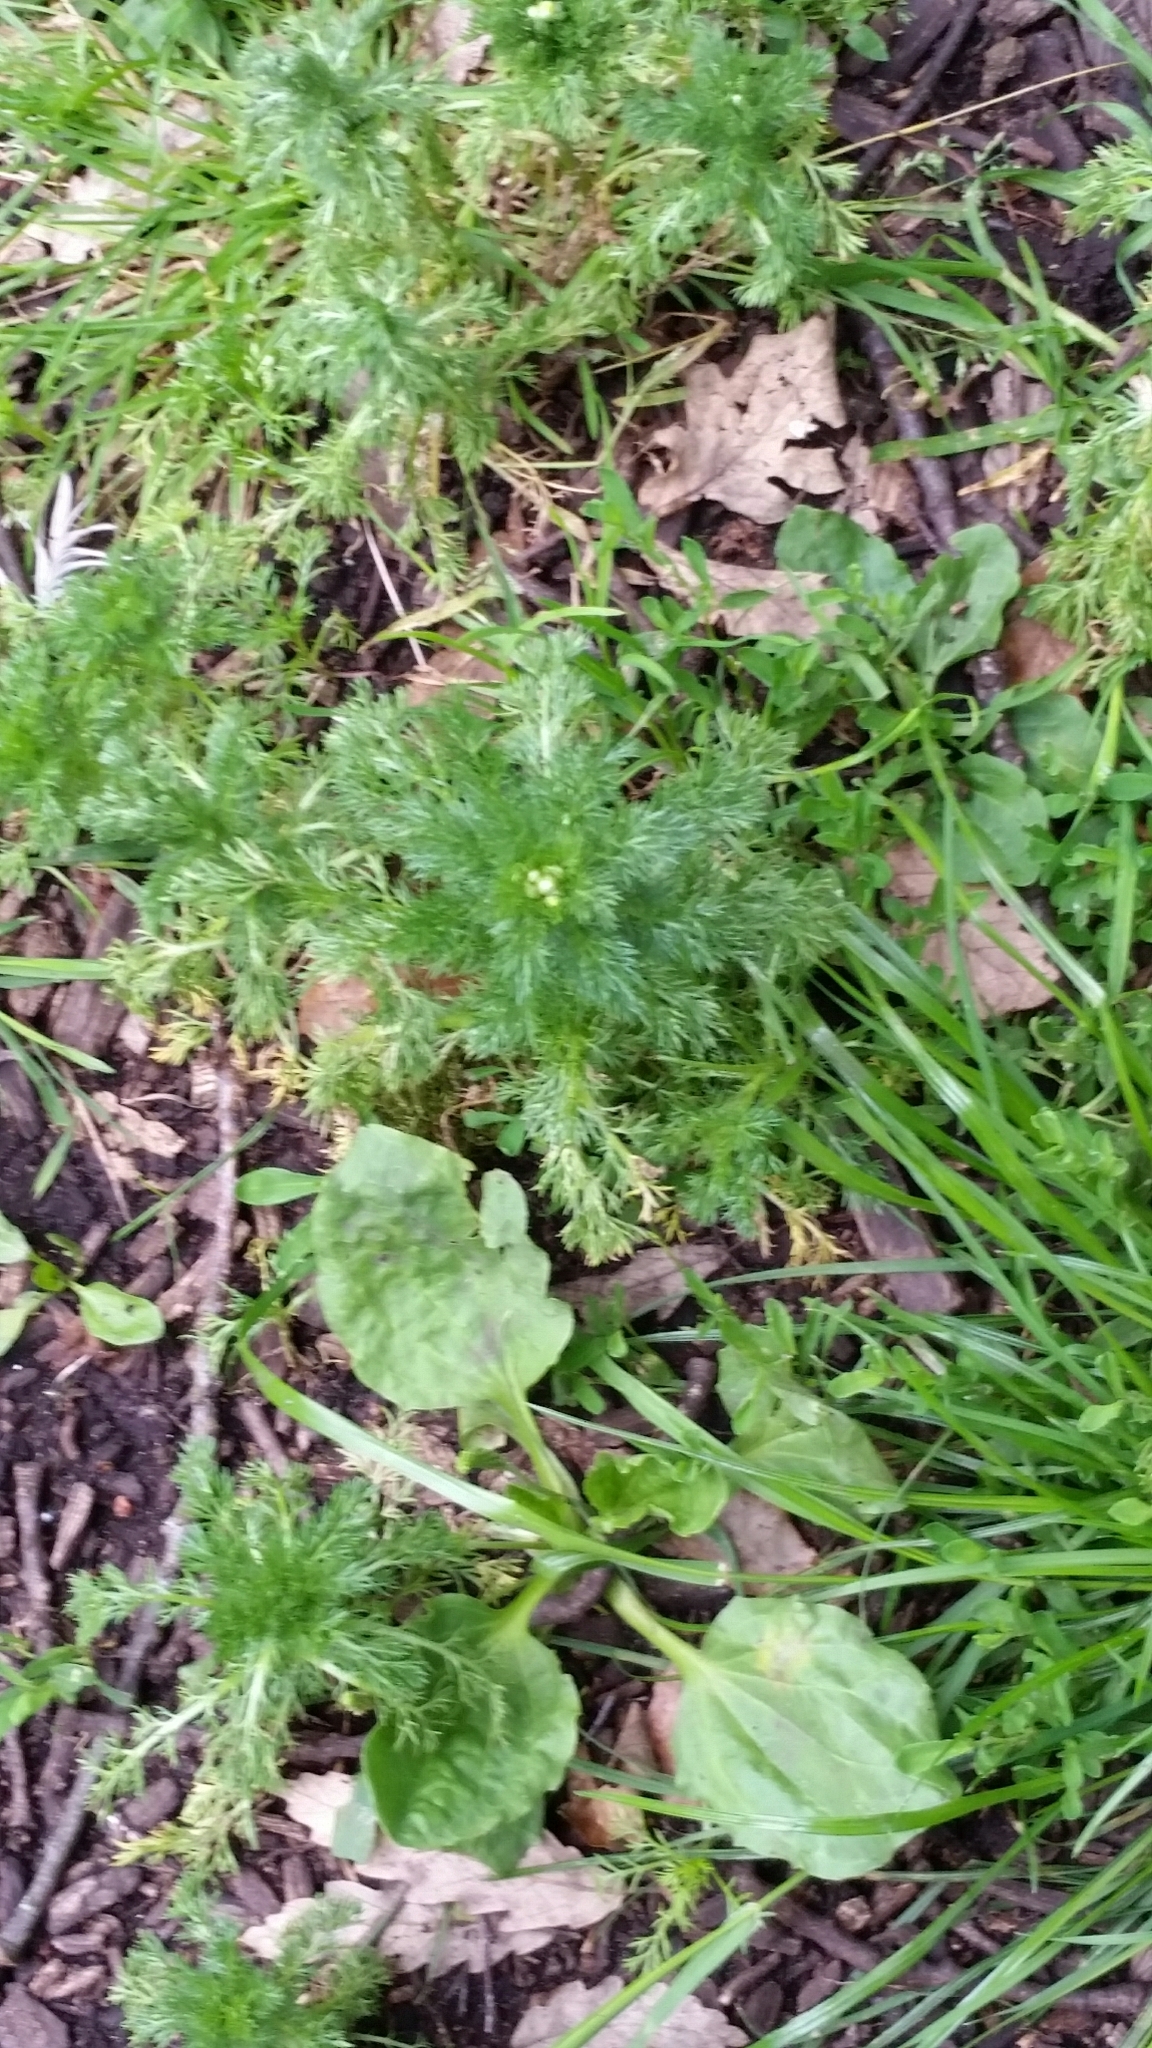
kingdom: Plantae
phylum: Tracheophyta
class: Magnoliopsida
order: Asterales
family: Asteraceae
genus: Matricaria
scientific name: Matricaria discoidea
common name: Disc mayweed
